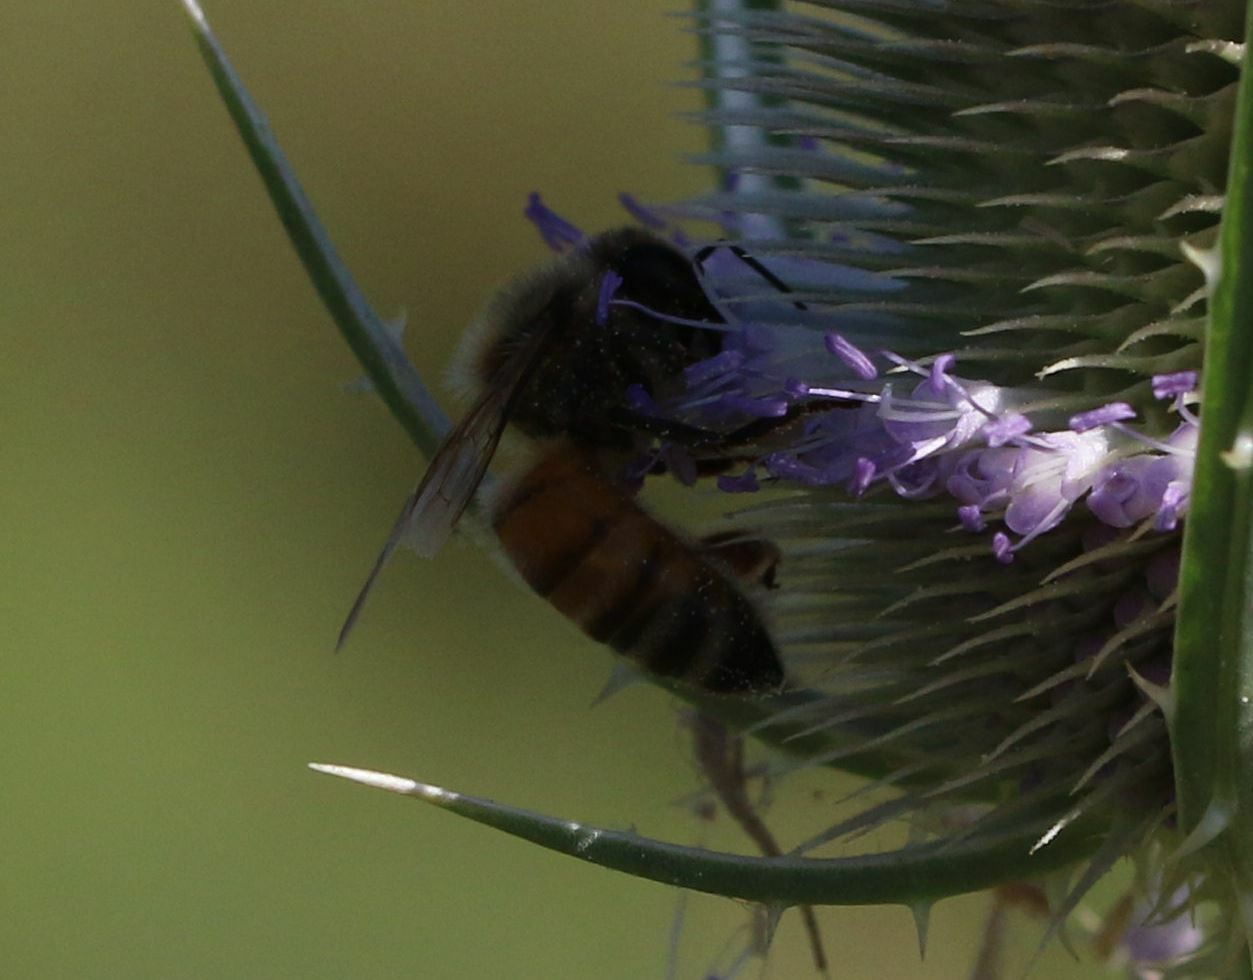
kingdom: Animalia
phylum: Arthropoda
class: Insecta
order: Hymenoptera
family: Apidae
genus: Apis
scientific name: Apis mellifera
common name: Honey bee
